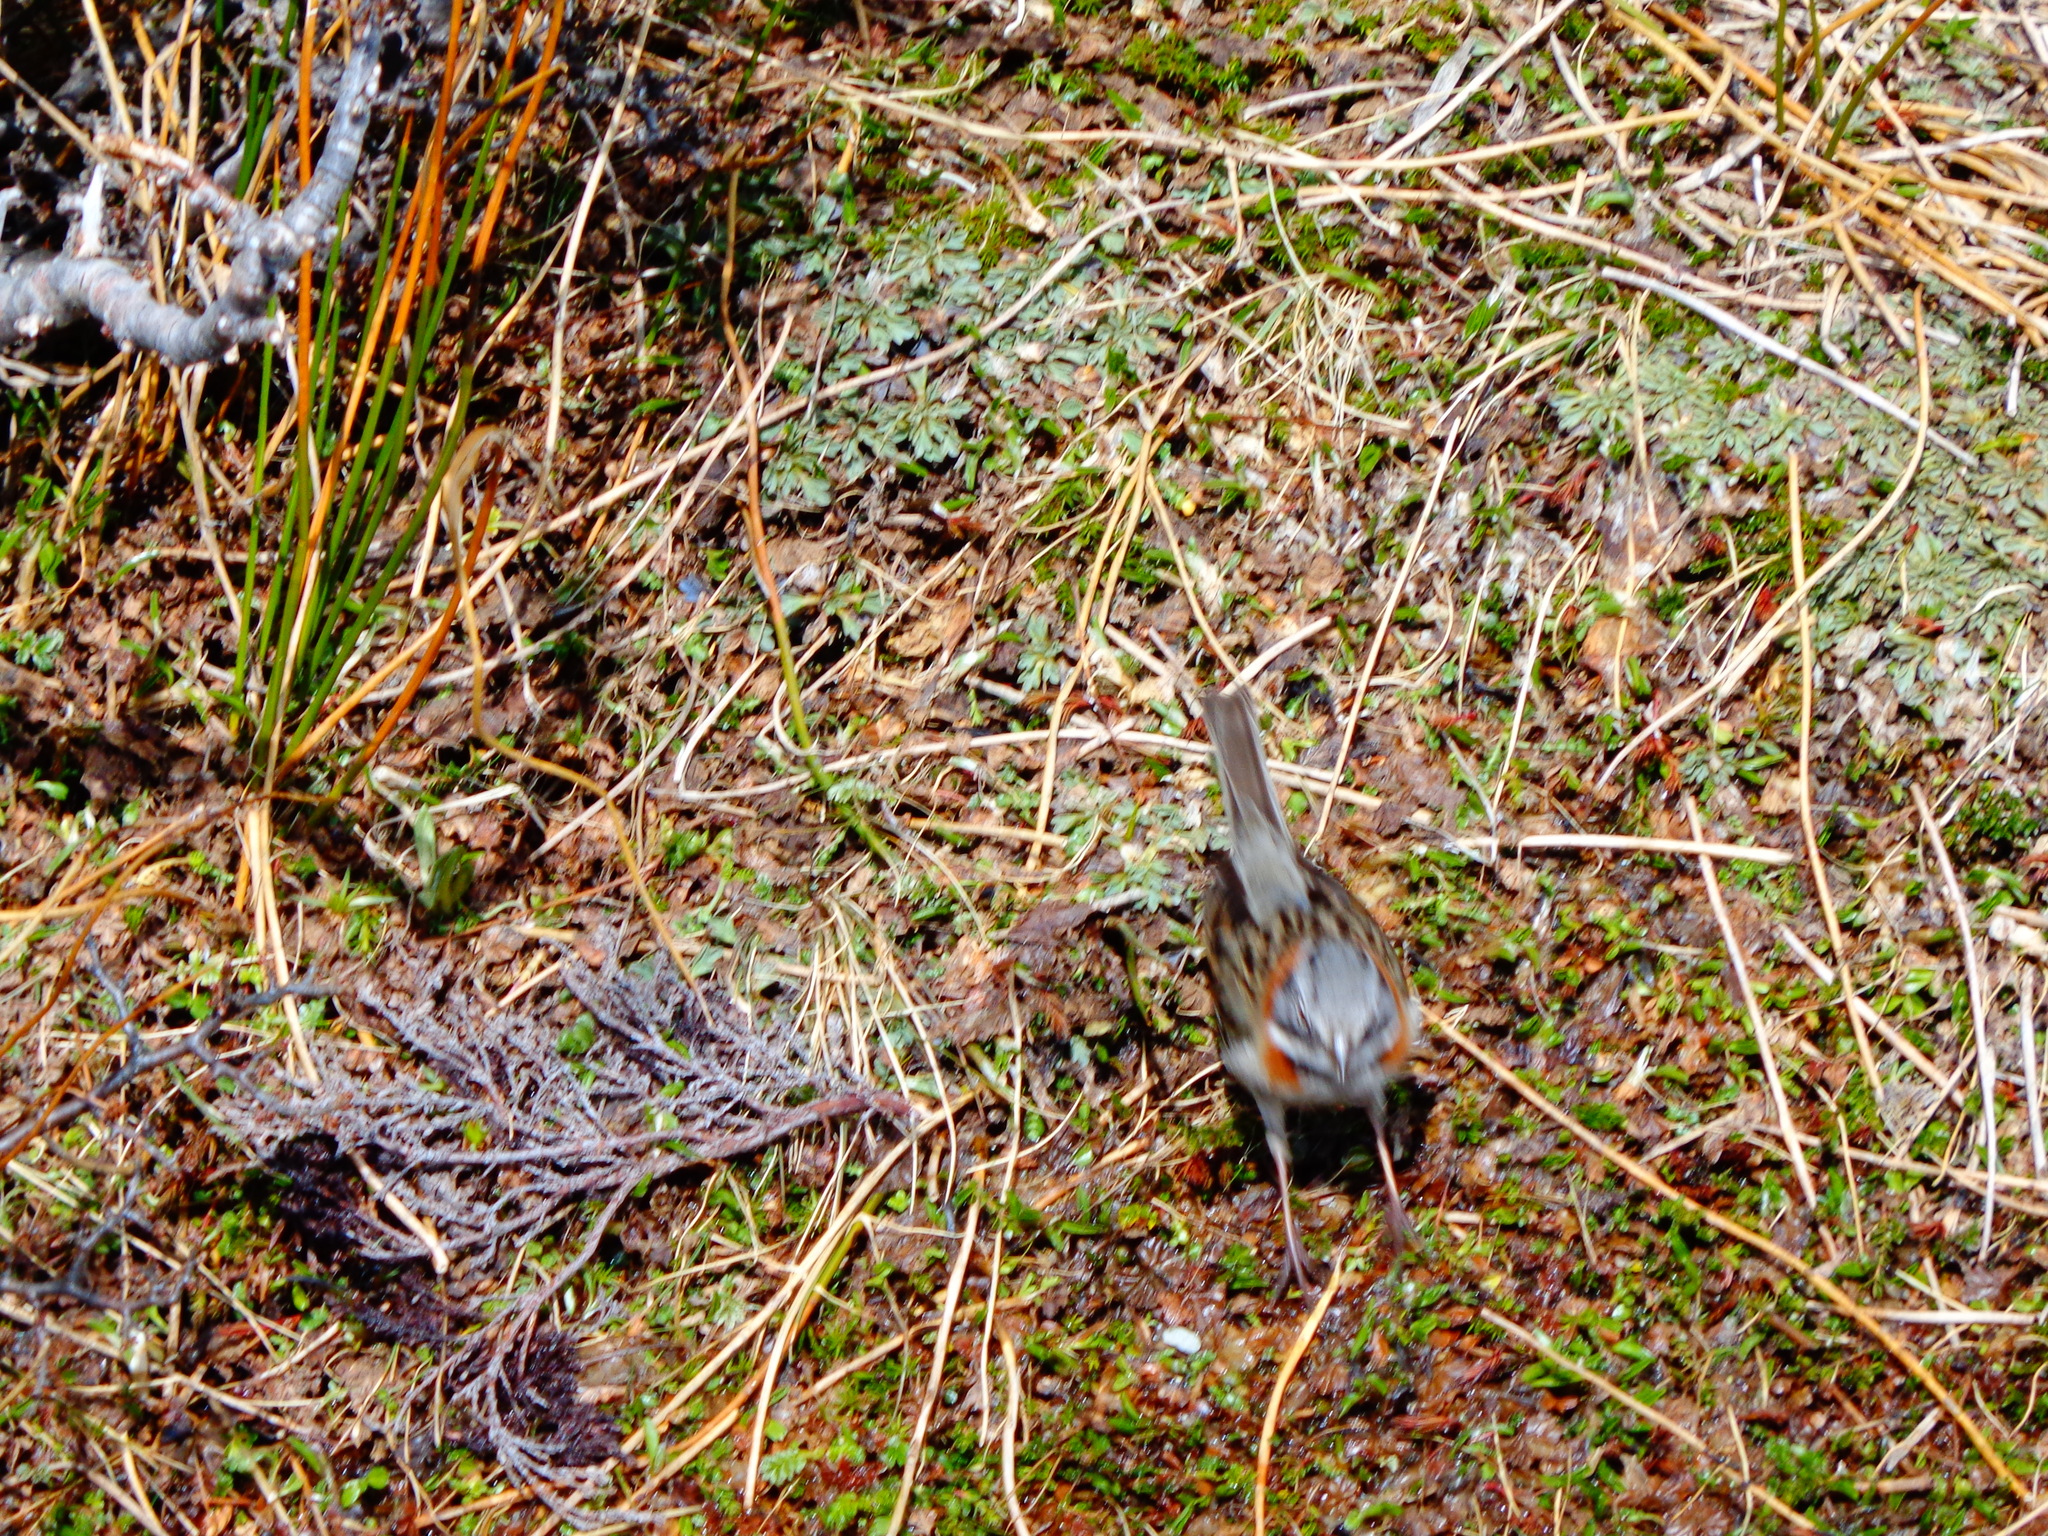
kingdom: Animalia
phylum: Chordata
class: Aves
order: Passeriformes
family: Passerellidae
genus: Zonotrichia
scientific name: Zonotrichia capensis
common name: Rufous-collared sparrow
